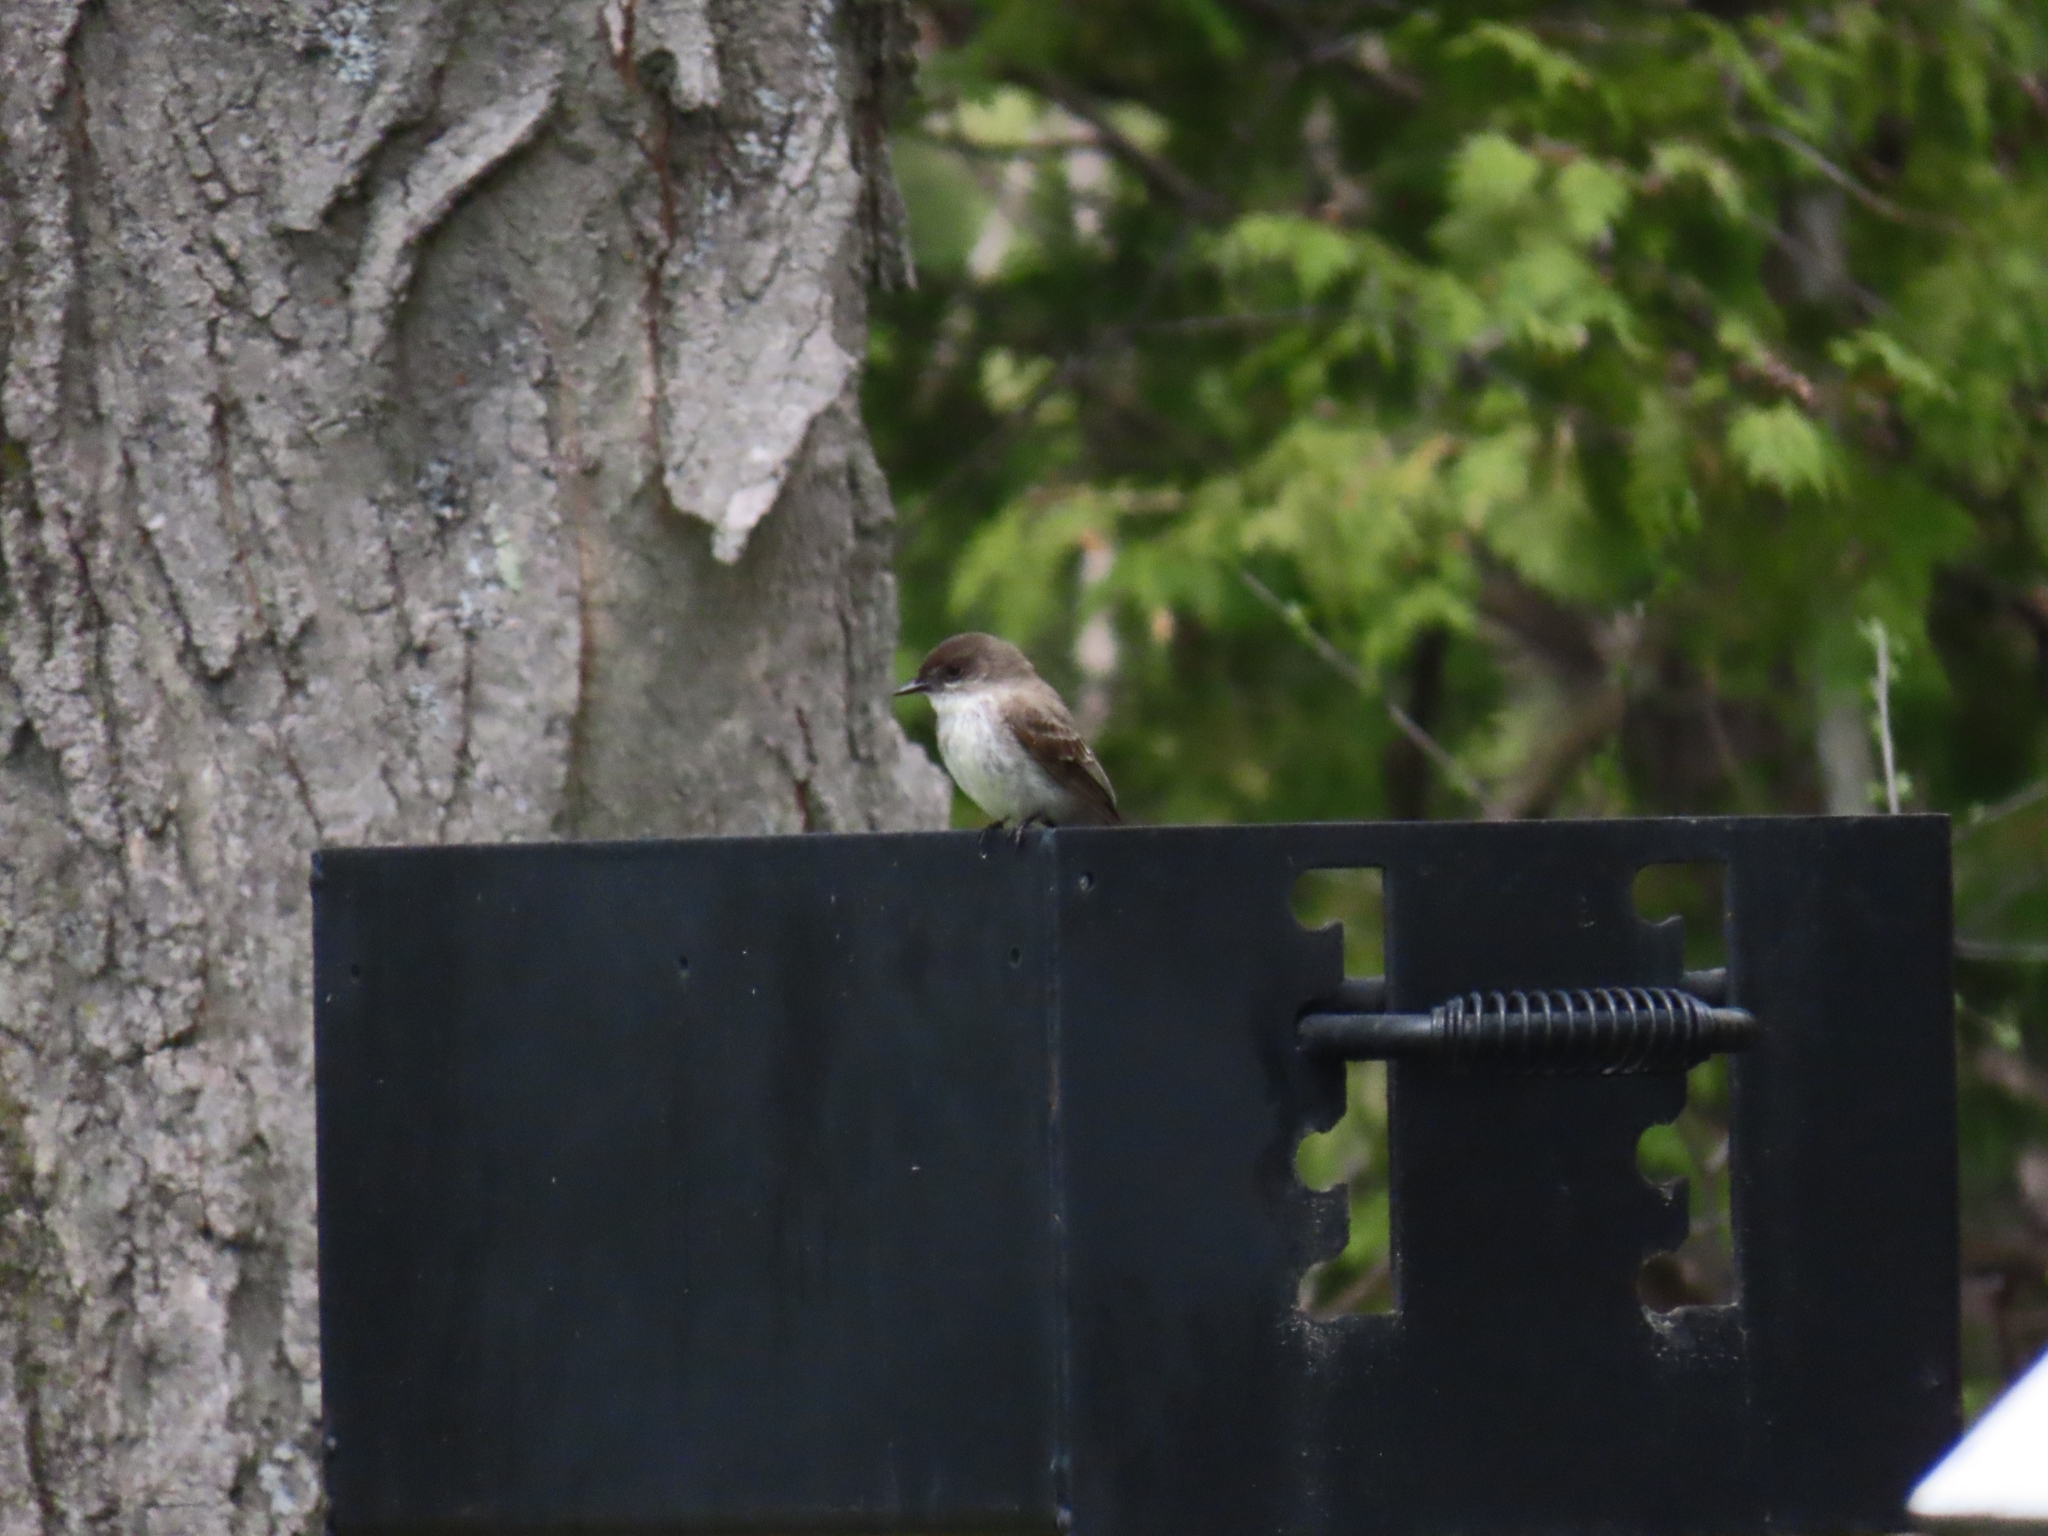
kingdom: Animalia
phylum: Chordata
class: Aves
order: Passeriformes
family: Tyrannidae
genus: Sayornis
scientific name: Sayornis phoebe
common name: Eastern phoebe
